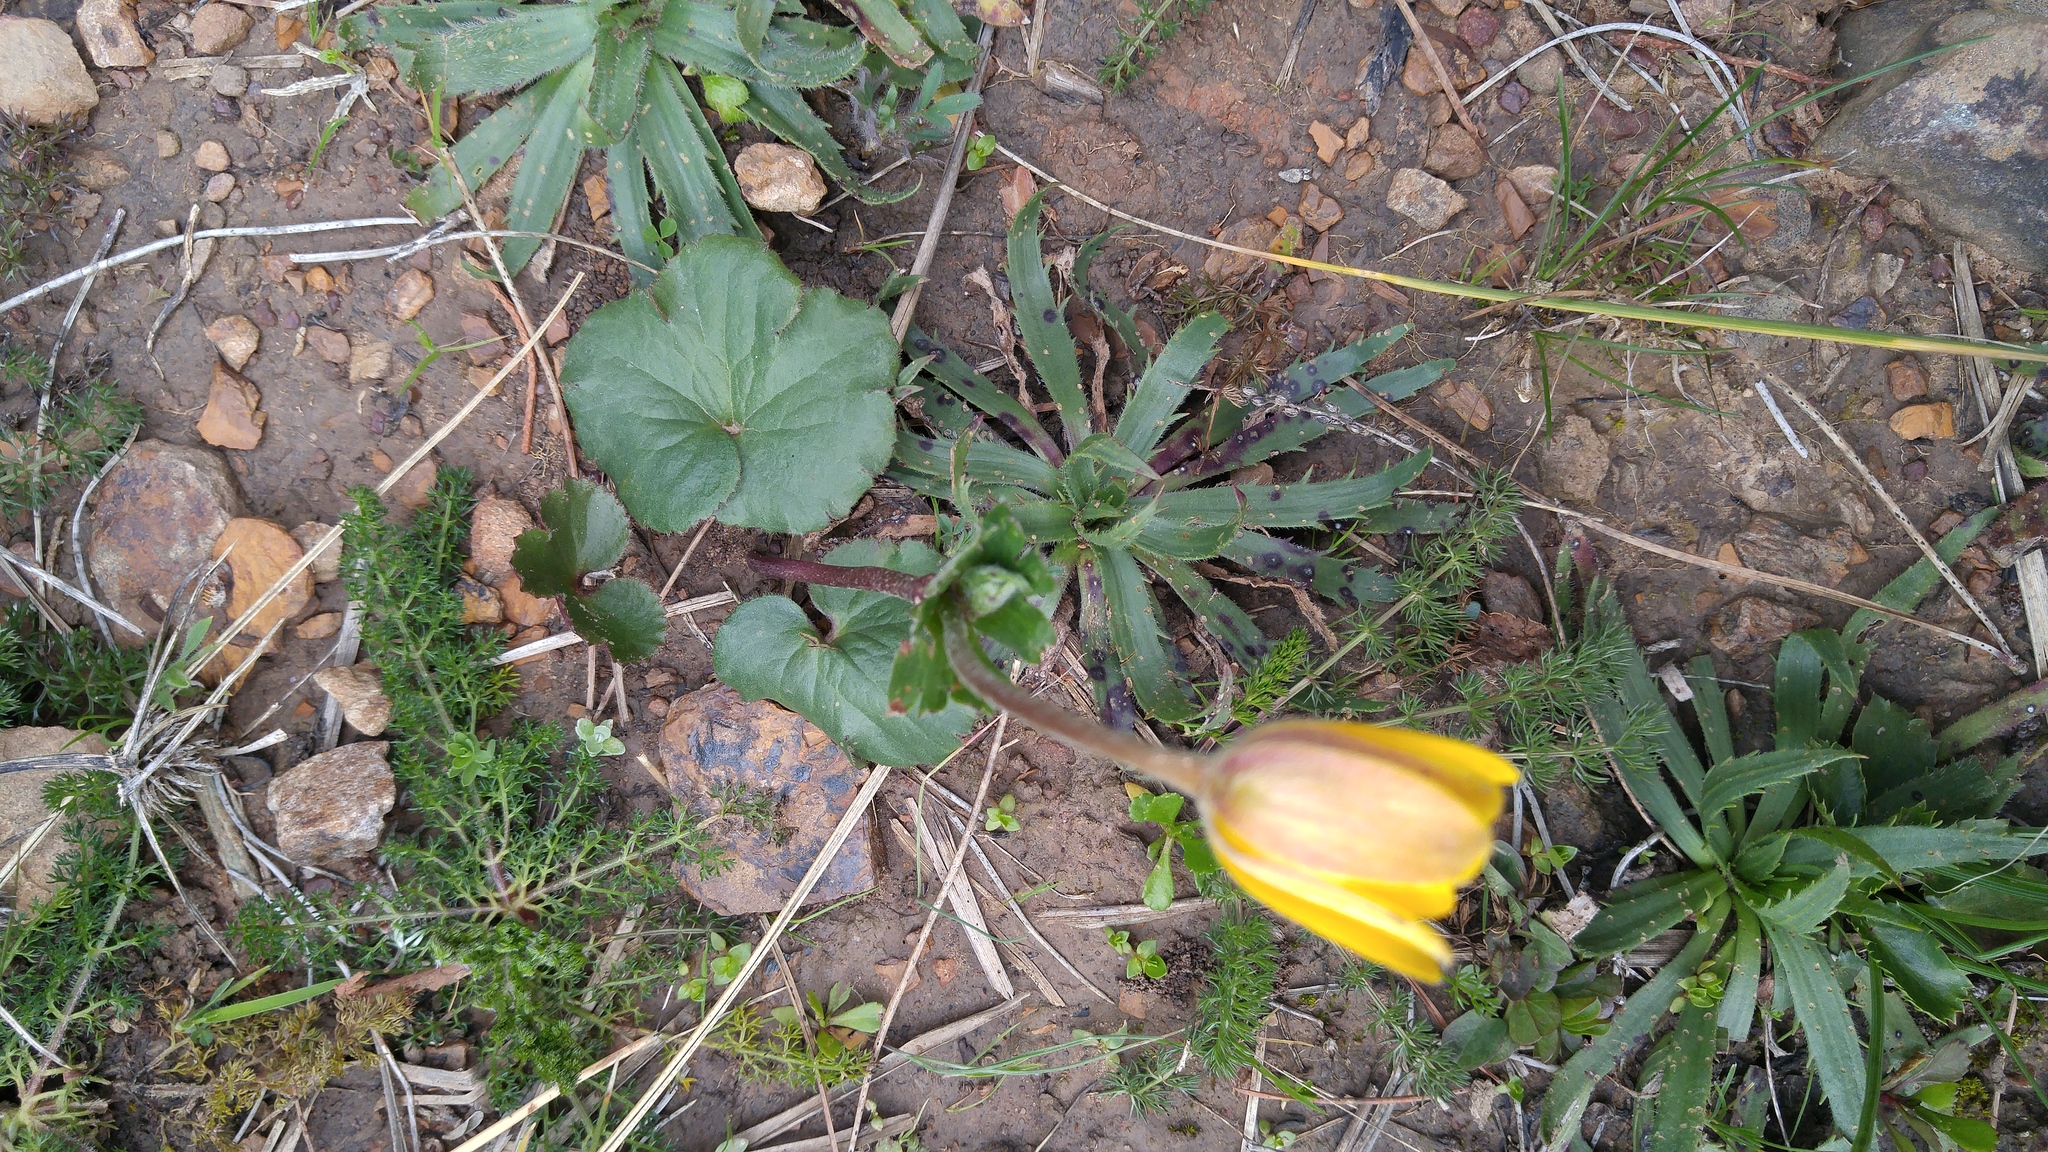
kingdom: Plantae
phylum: Tracheophyta
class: Magnoliopsida
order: Ranunculales
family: Ranunculaceae
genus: Anemone
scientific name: Anemone palmata
